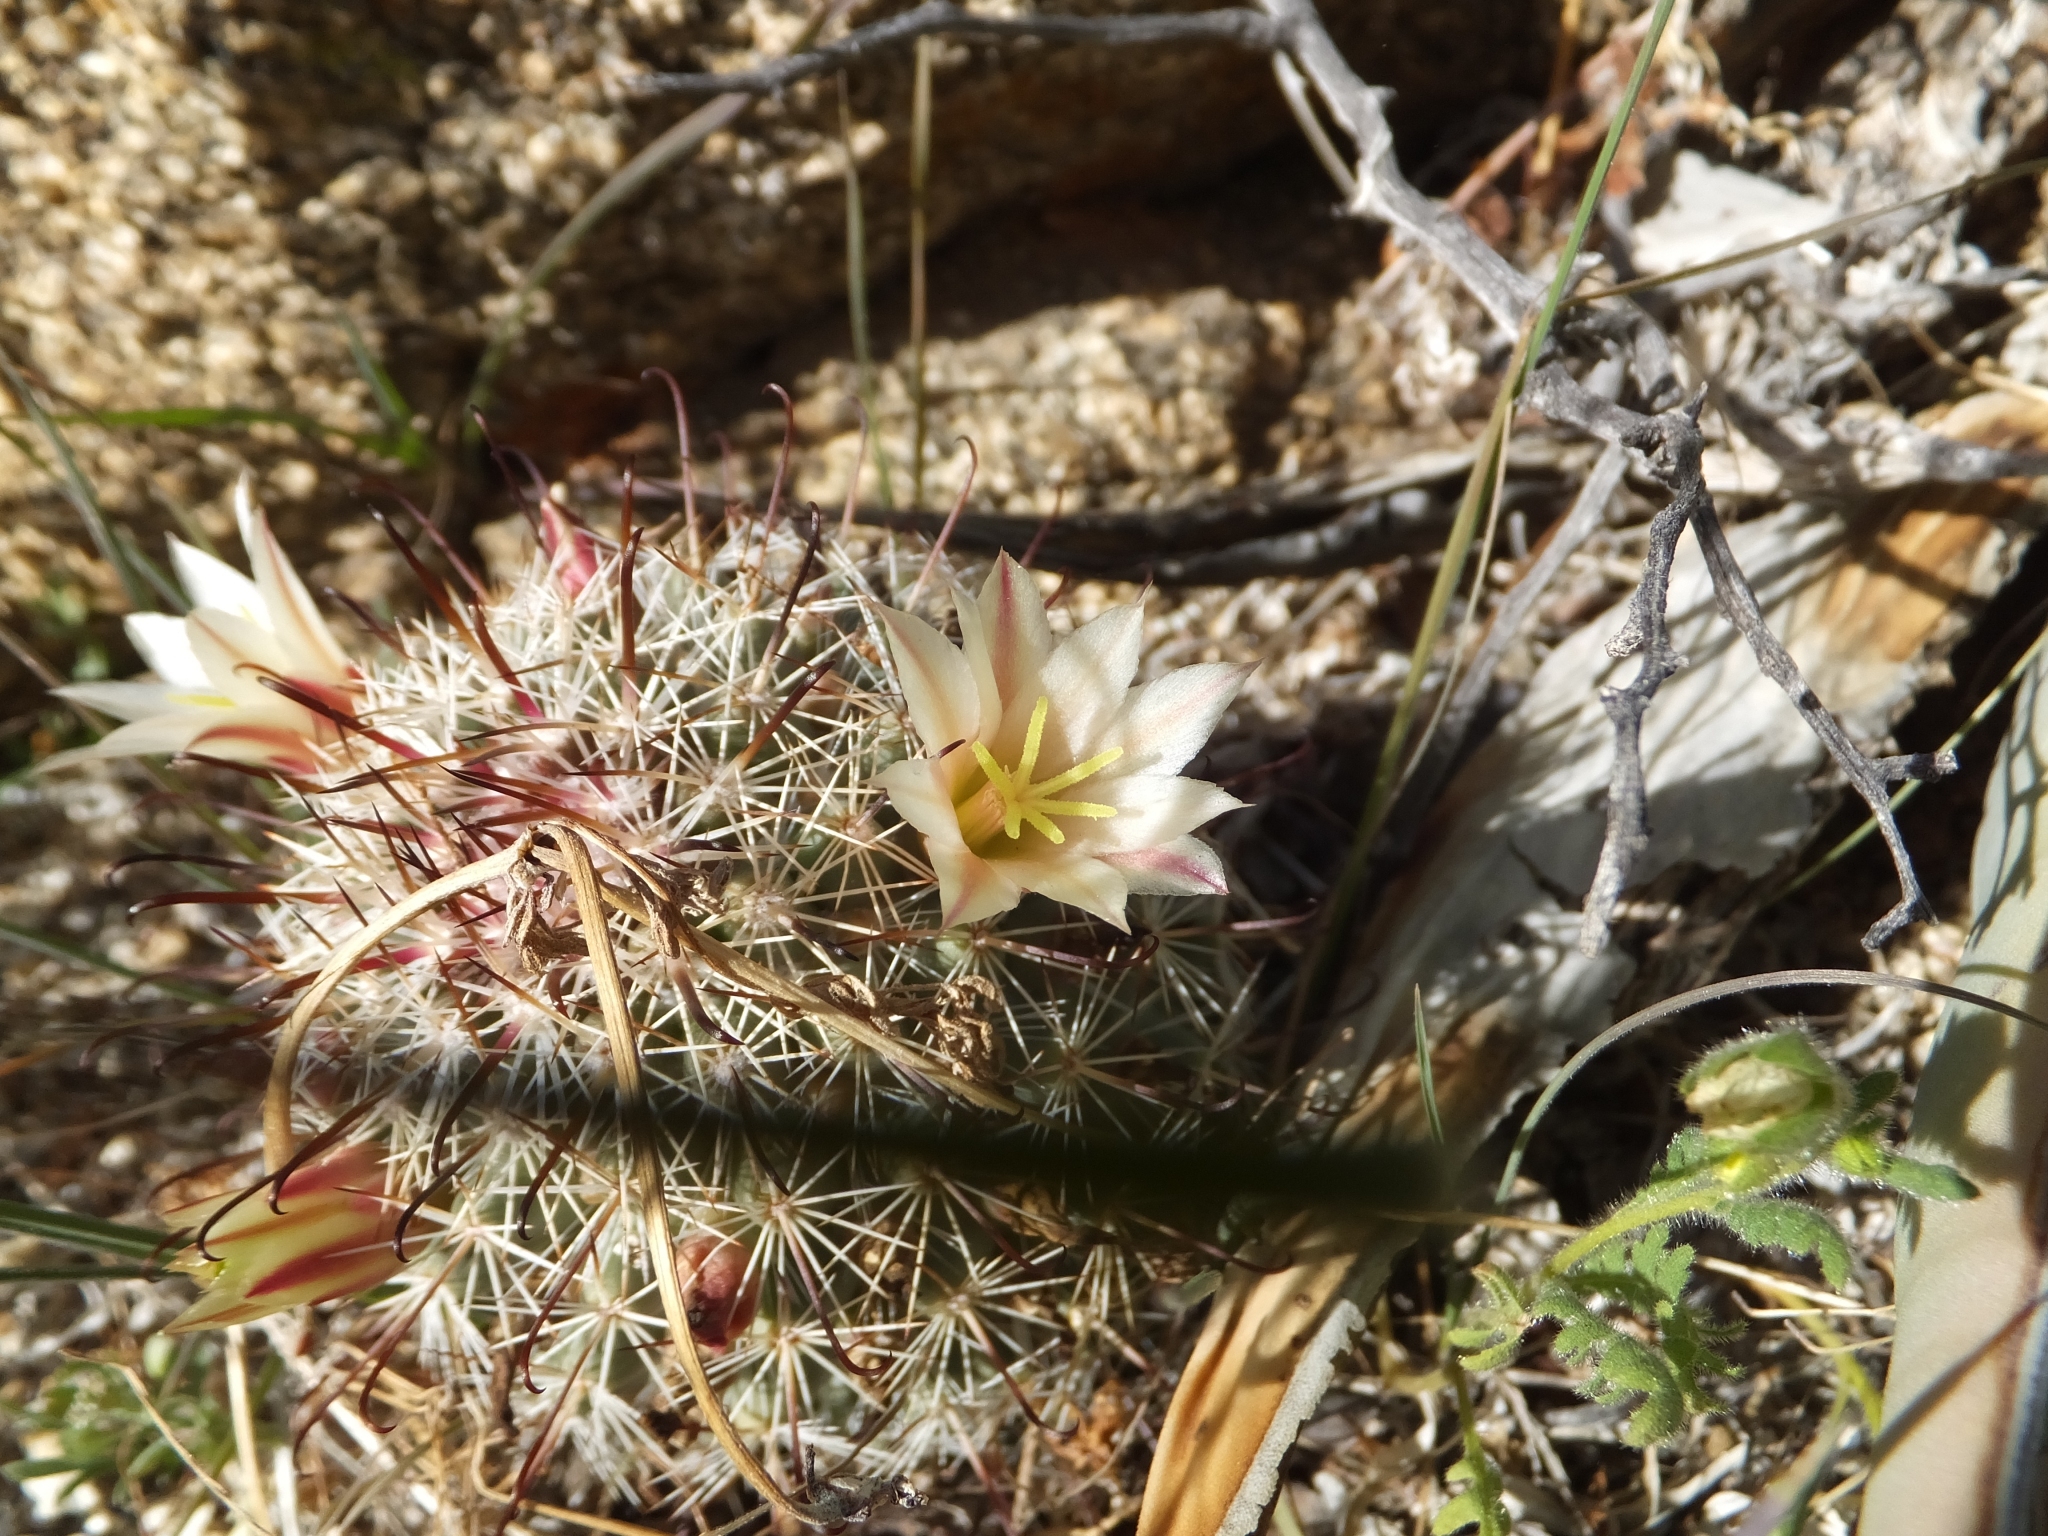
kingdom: Plantae
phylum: Tracheophyta
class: Magnoliopsida
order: Caryophyllales
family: Cactaceae
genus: Cochemiea
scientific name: Cochemiea dioica
